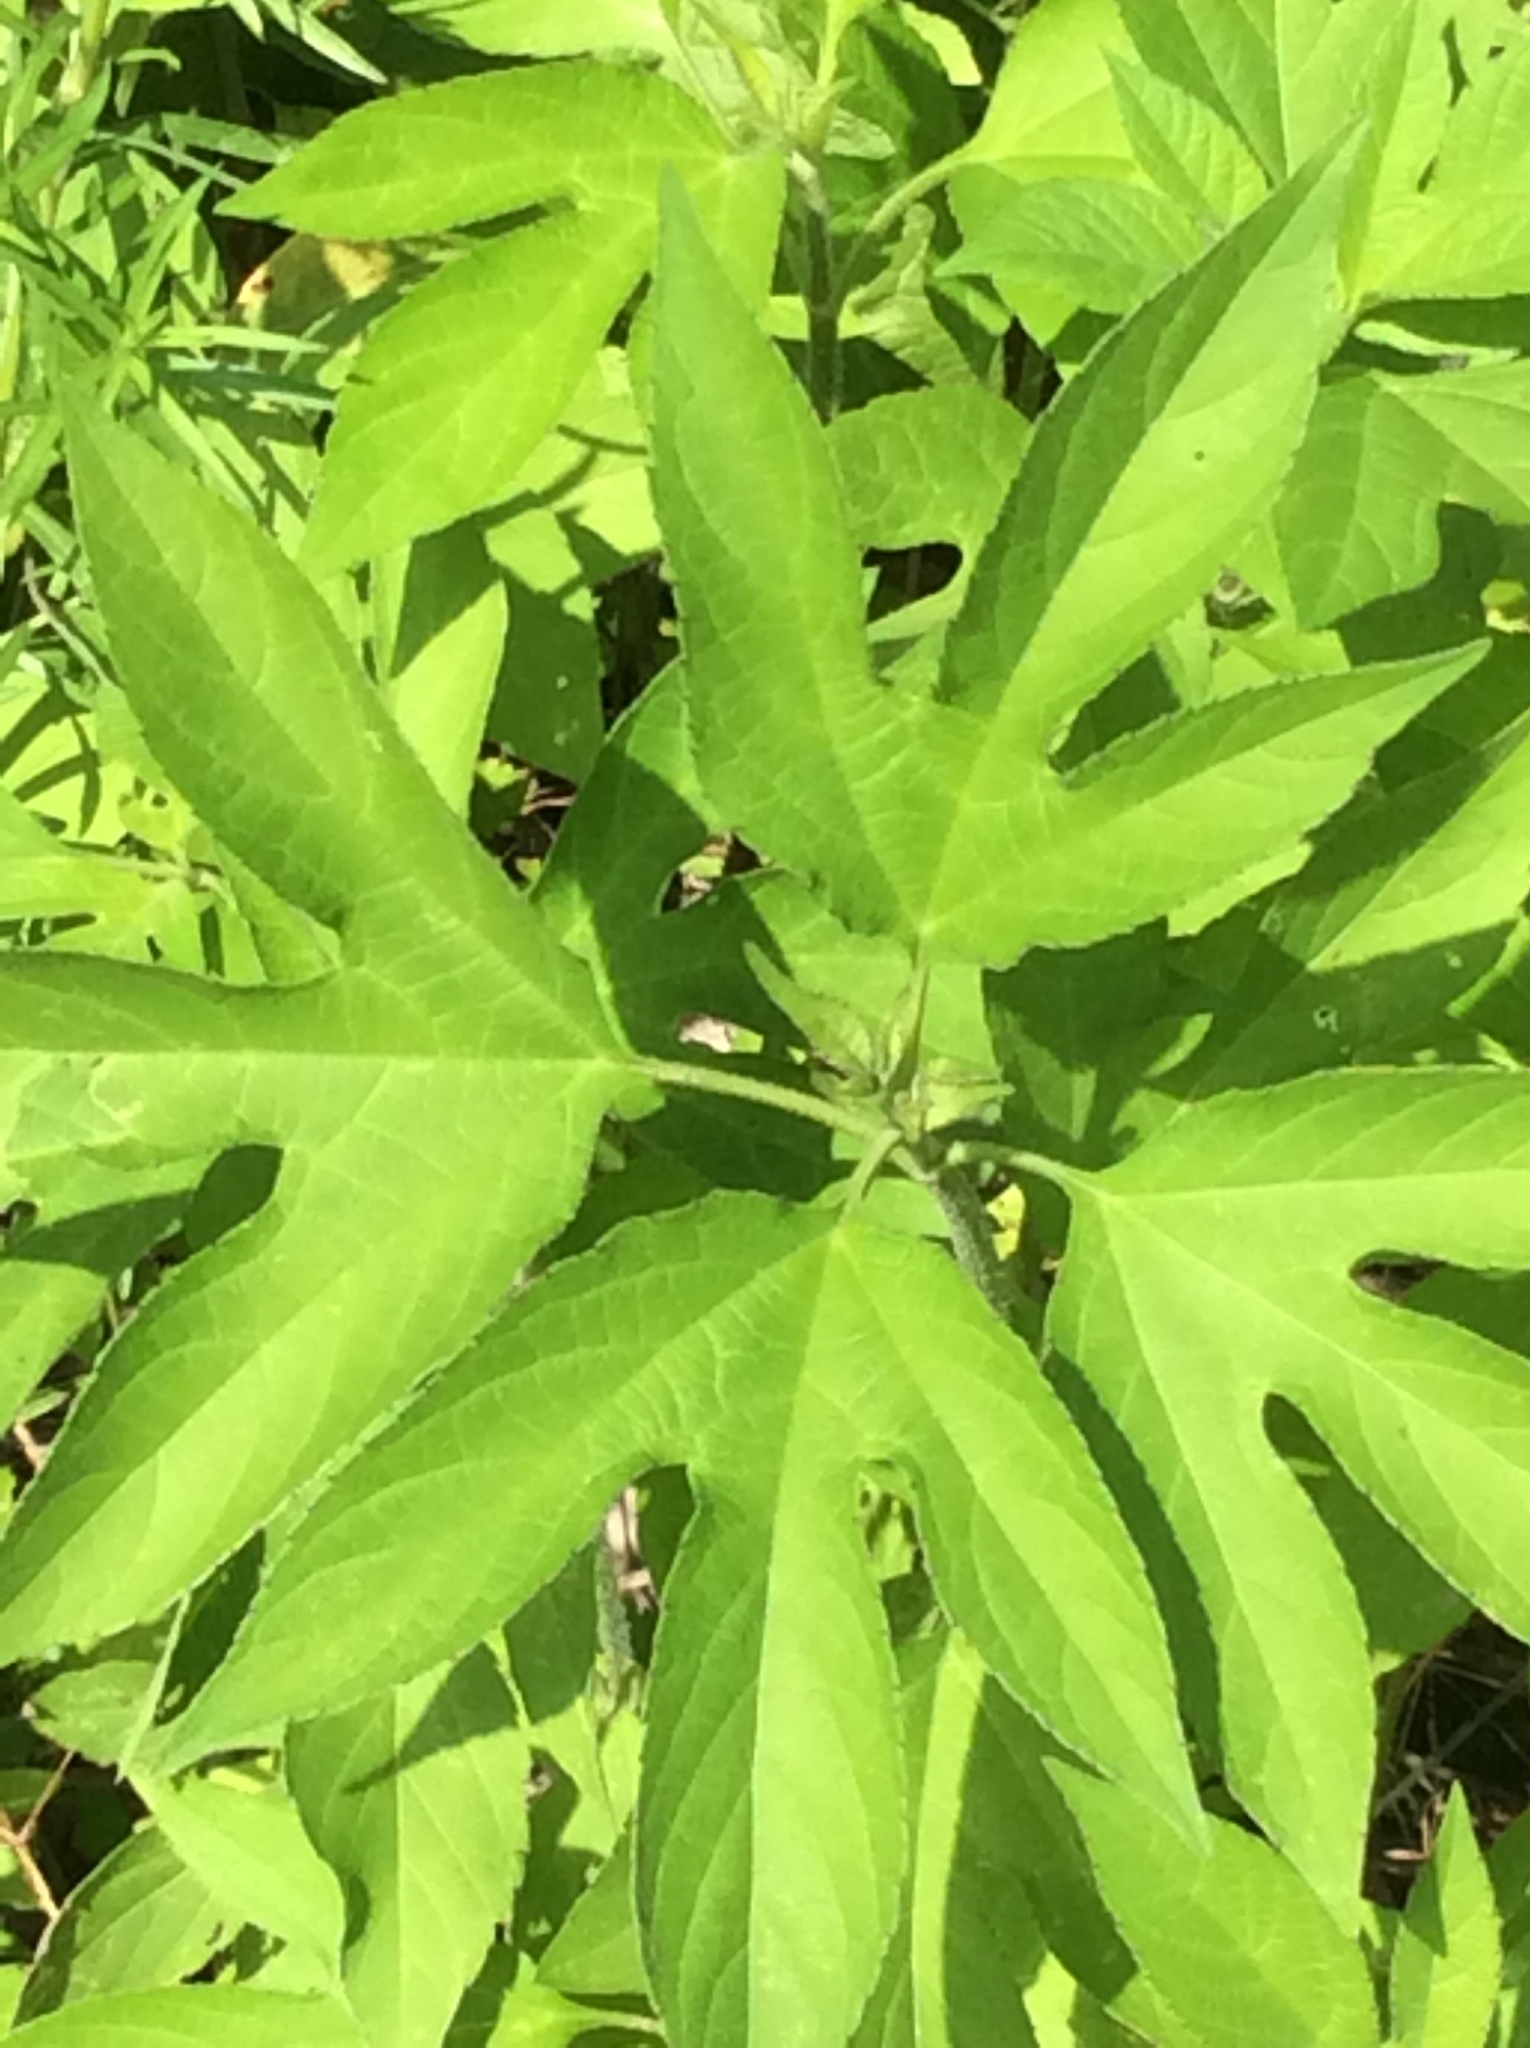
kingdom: Plantae
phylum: Tracheophyta
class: Magnoliopsida
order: Asterales
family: Asteraceae
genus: Ambrosia
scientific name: Ambrosia trifida
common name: Giant ragweed
